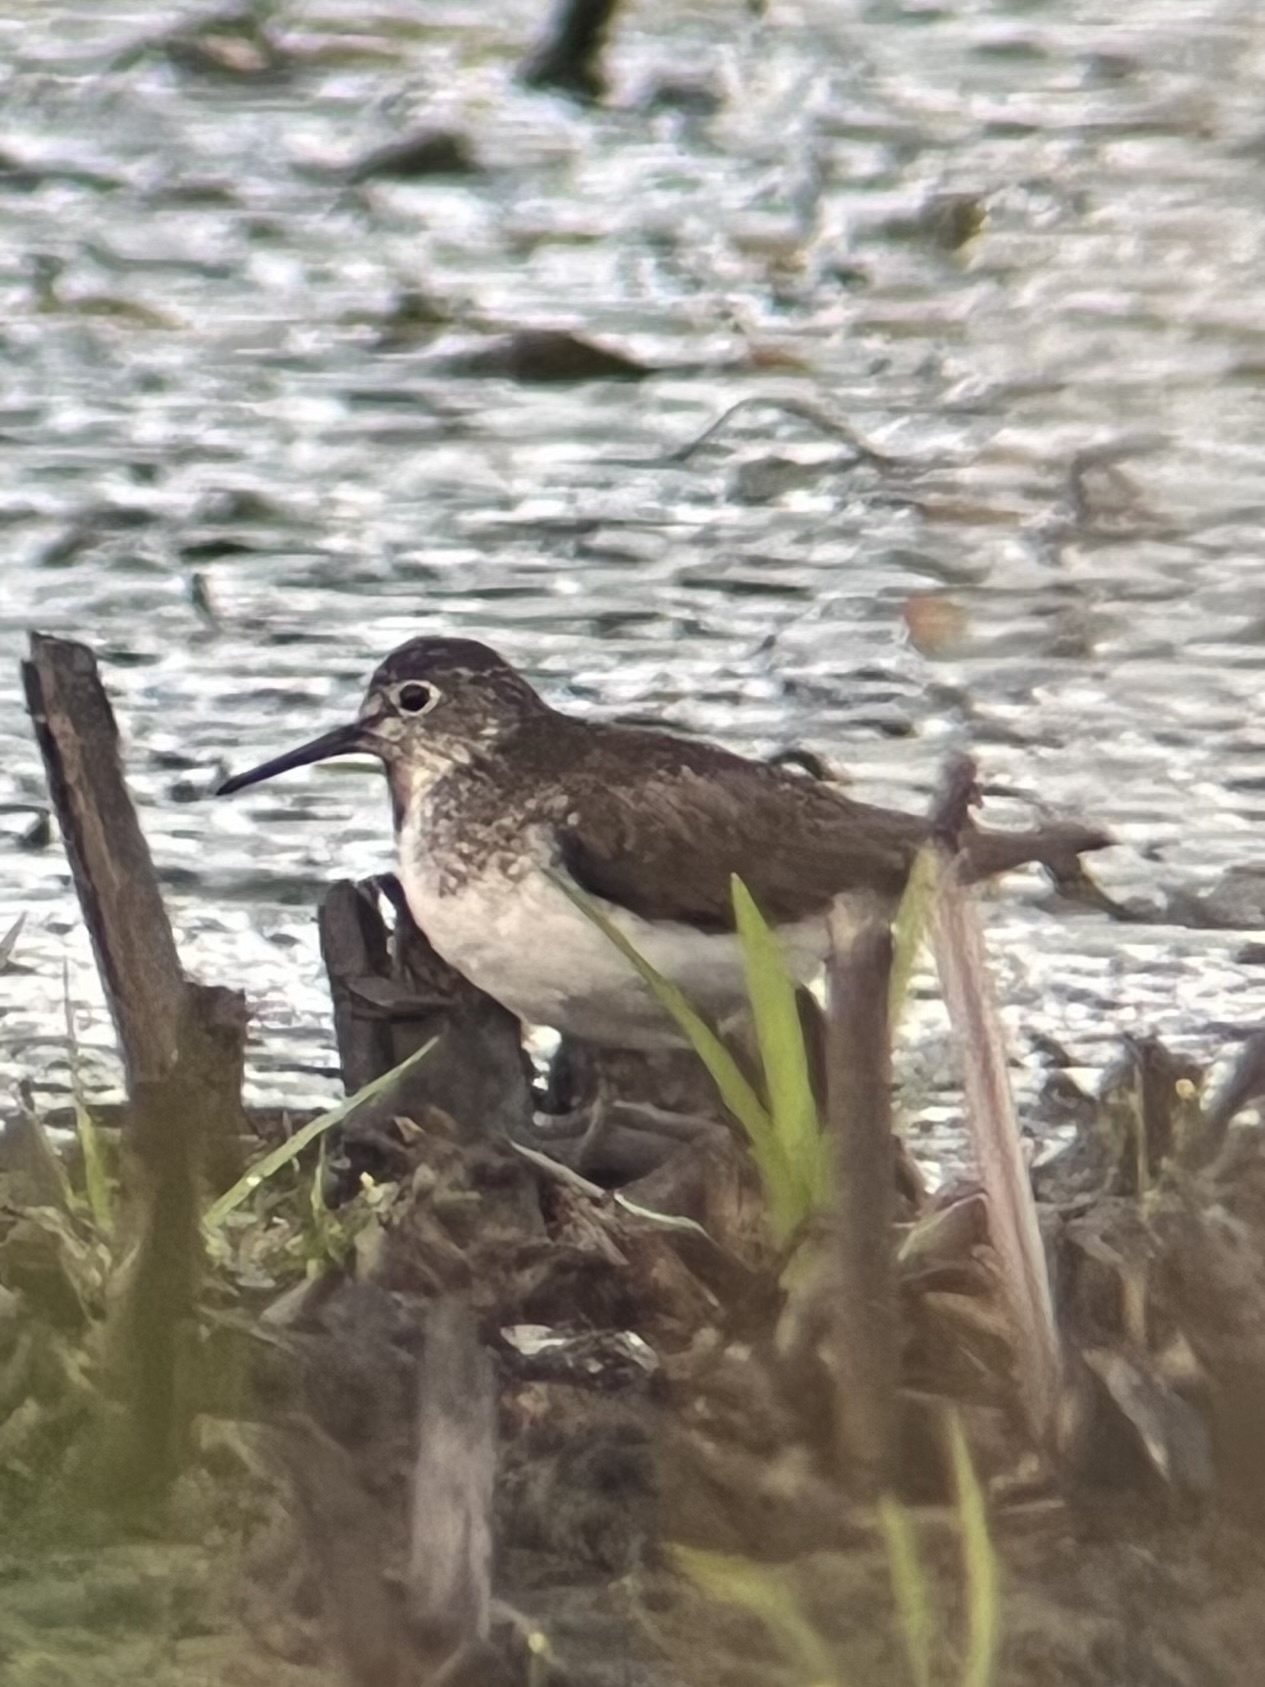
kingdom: Animalia
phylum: Chordata
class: Aves
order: Charadriiformes
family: Scolopacidae
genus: Tringa
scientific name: Tringa solitaria
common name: Solitary sandpiper
